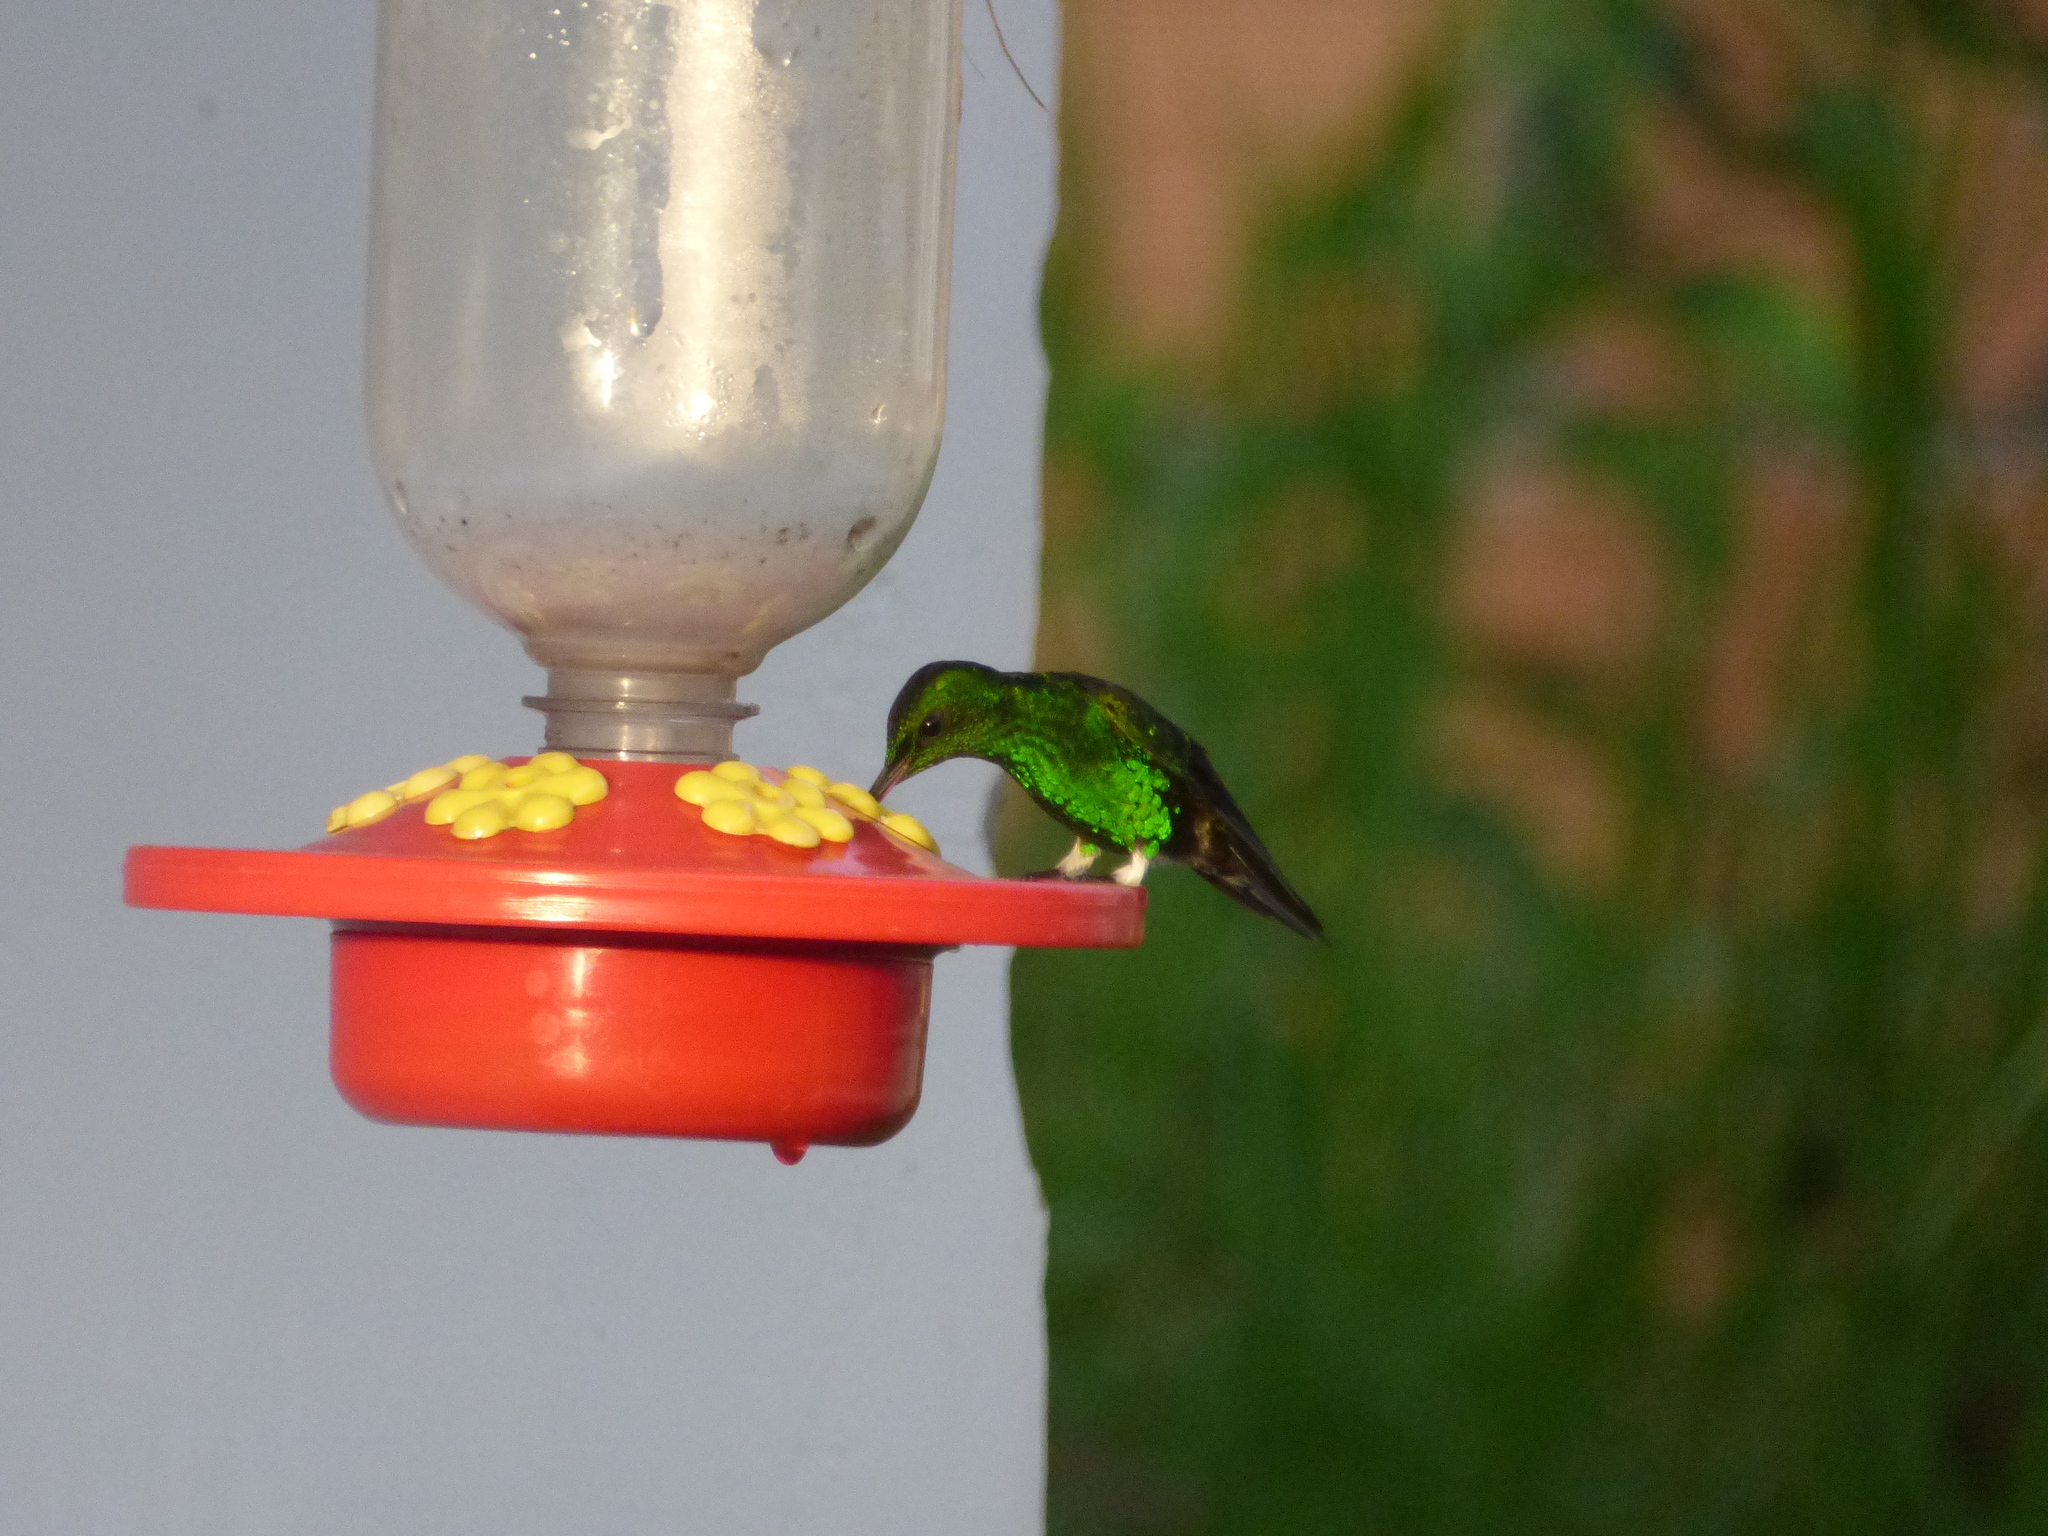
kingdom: Animalia
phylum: Chordata
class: Aves
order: Apodiformes
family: Trochilidae
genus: Eriocnemis
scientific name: Eriocnemis vestita
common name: Glowing puffleg
